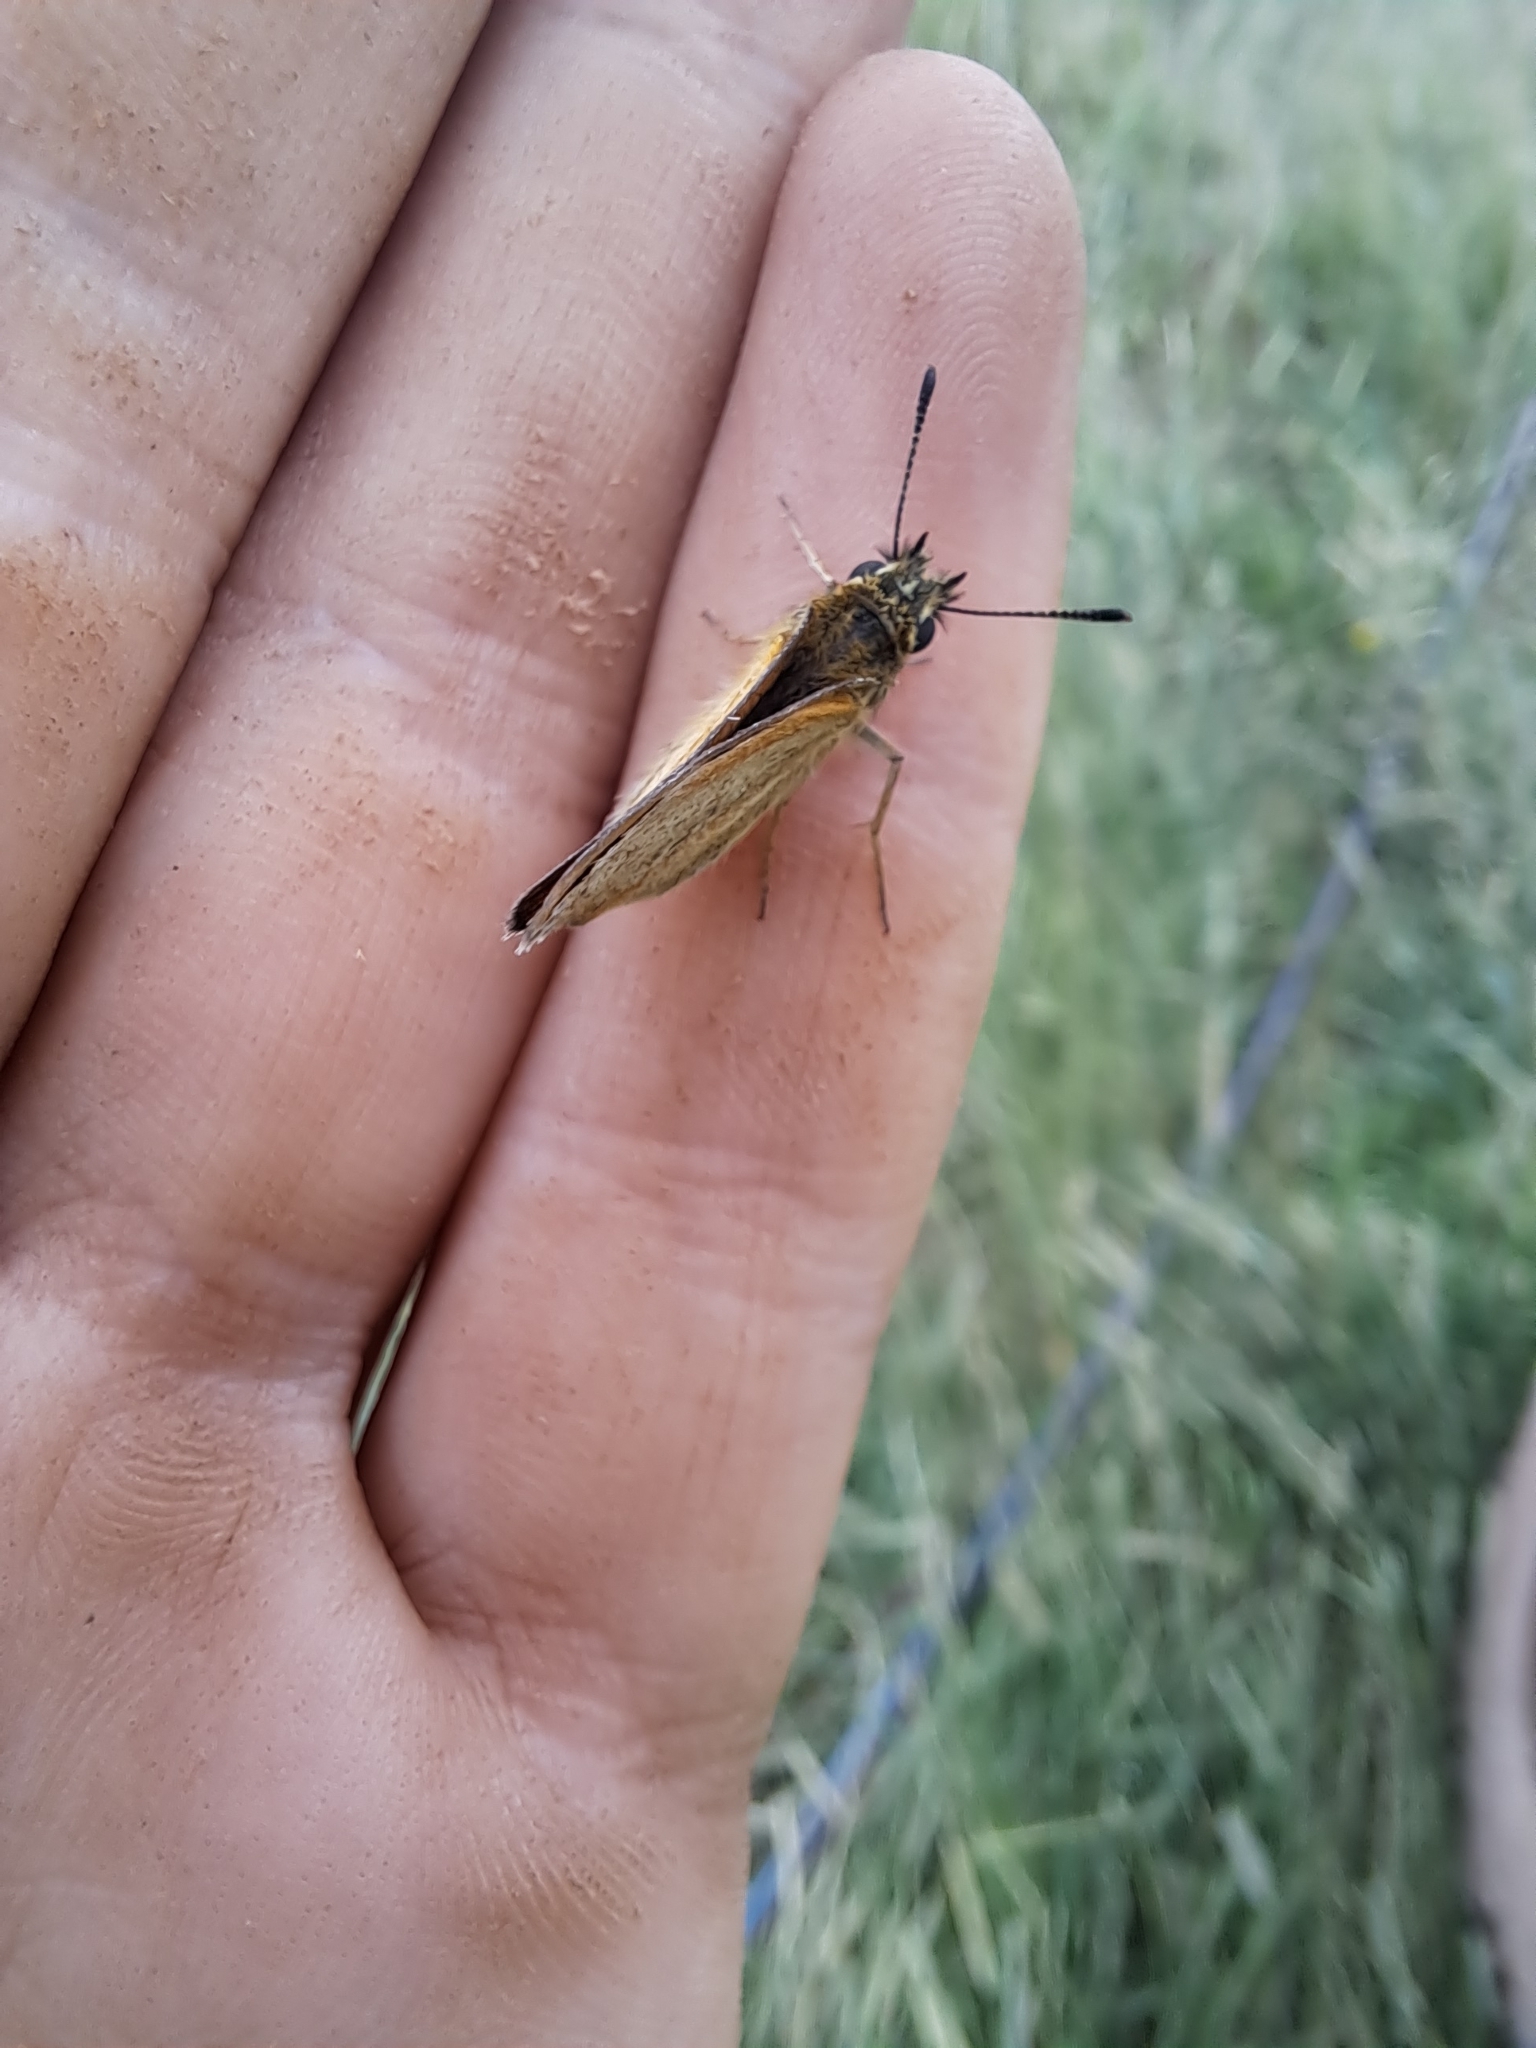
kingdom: Animalia
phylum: Arthropoda
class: Insecta
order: Lepidoptera
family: Hesperiidae
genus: Thymelicus
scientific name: Thymelicus lineola
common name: Essex skipper
